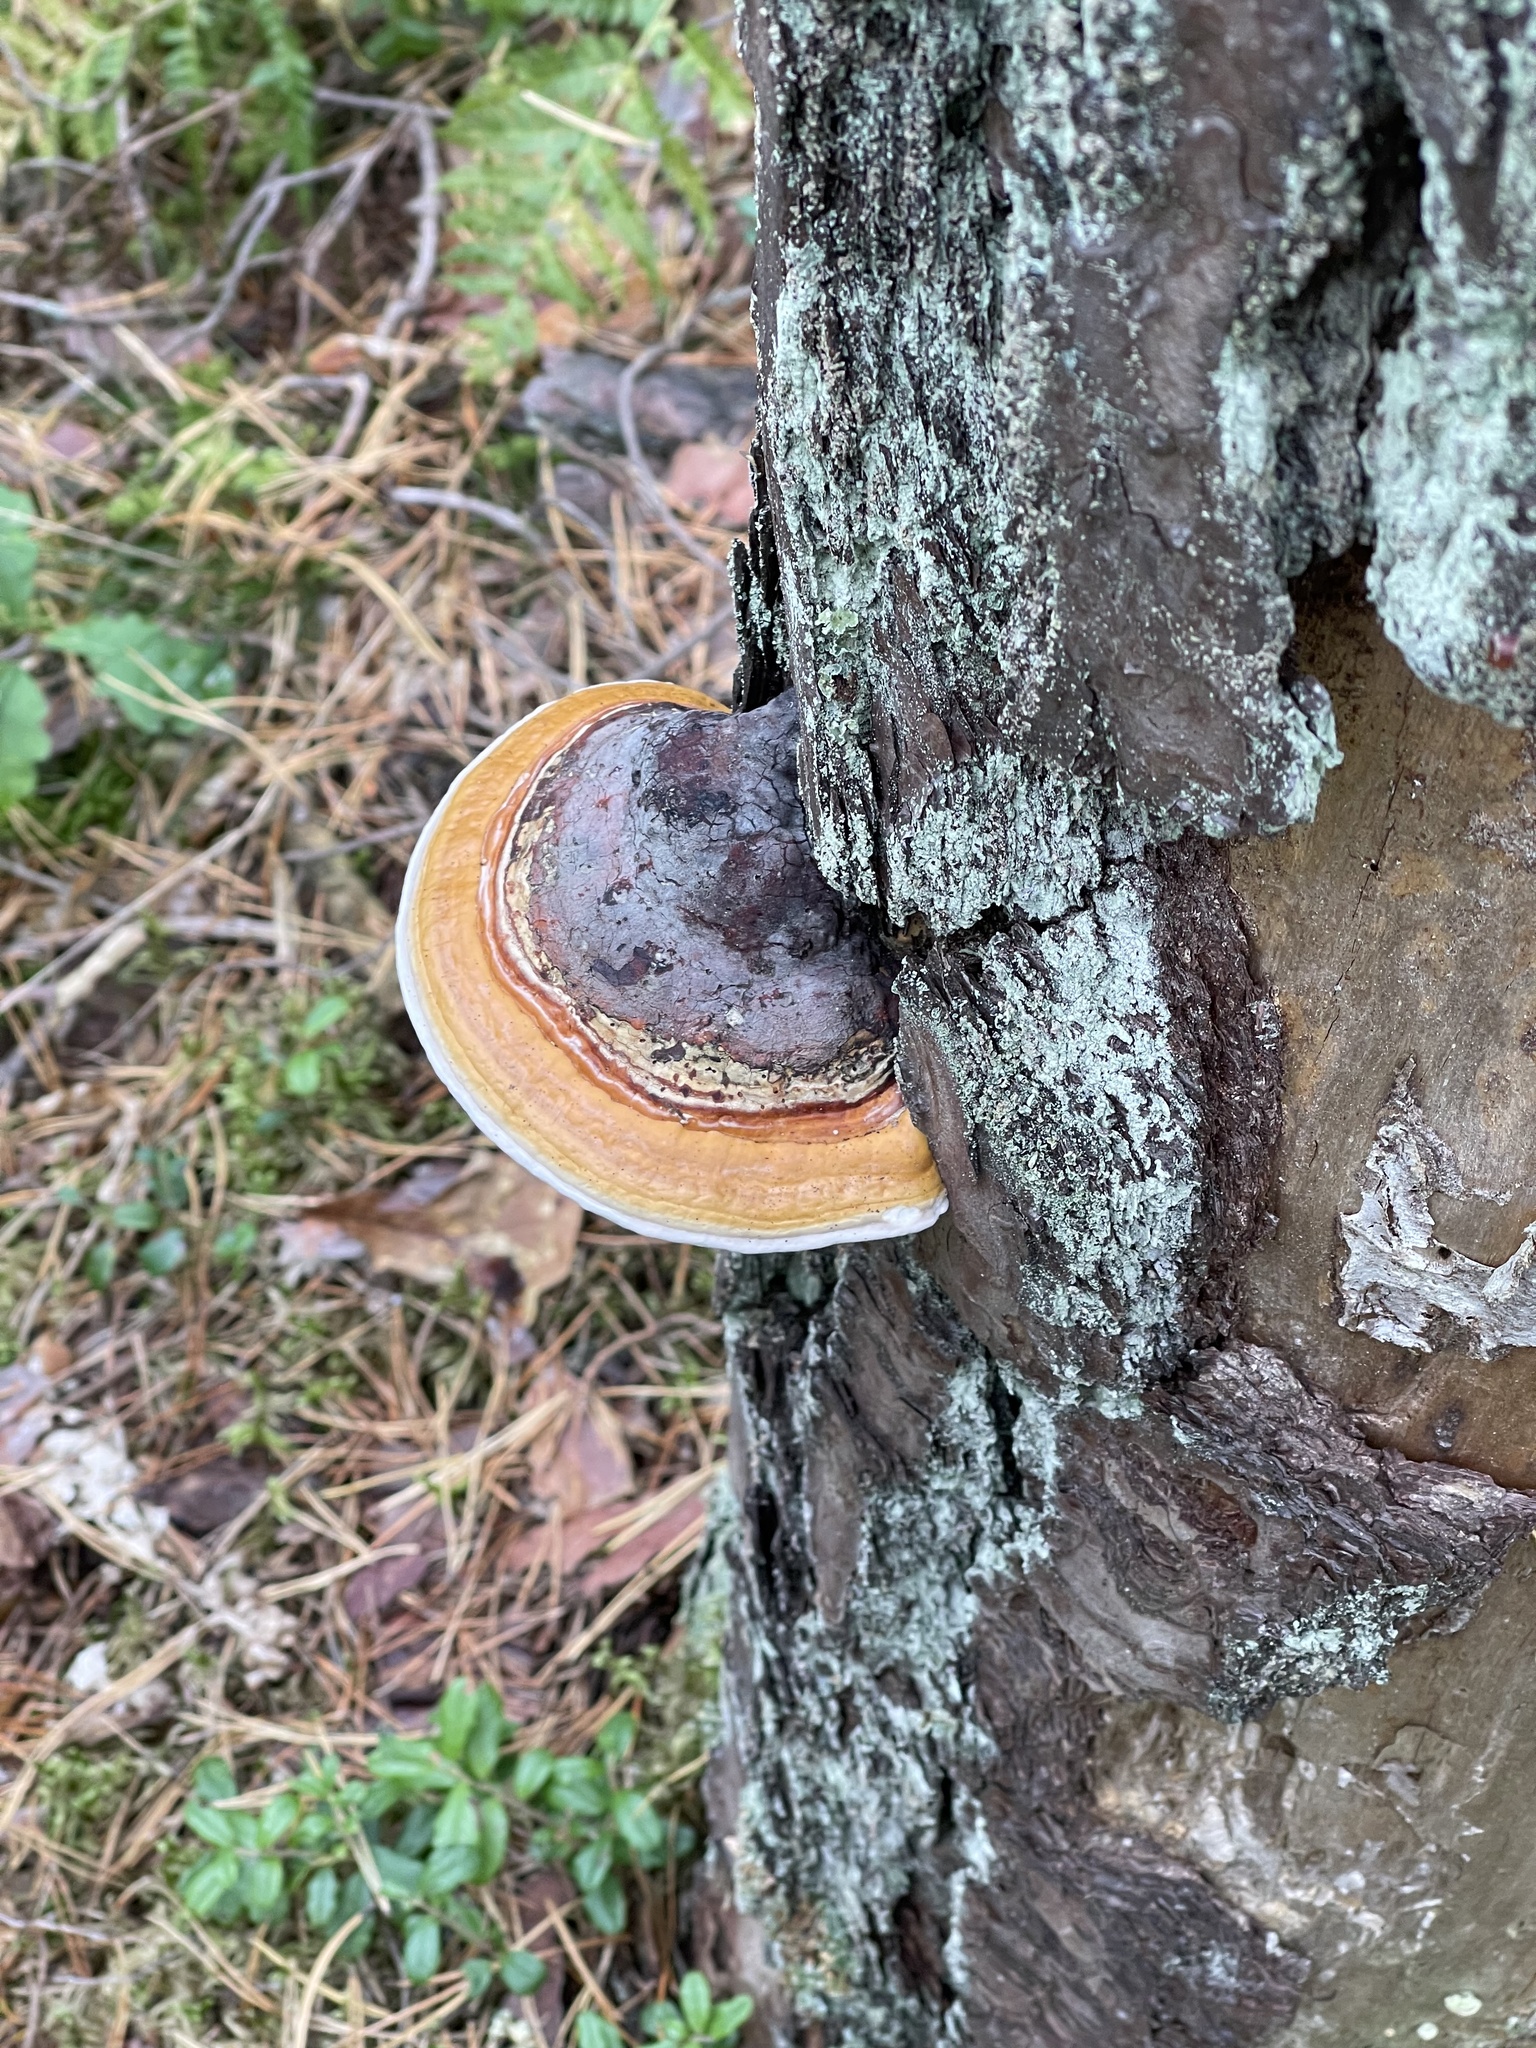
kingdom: Fungi
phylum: Basidiomycota
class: Agaricomycetes
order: Polyporales
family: Fomitopsidaceae
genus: Fomitopsis
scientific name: Fomitopsis pinicola
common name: Red-belted bracket
